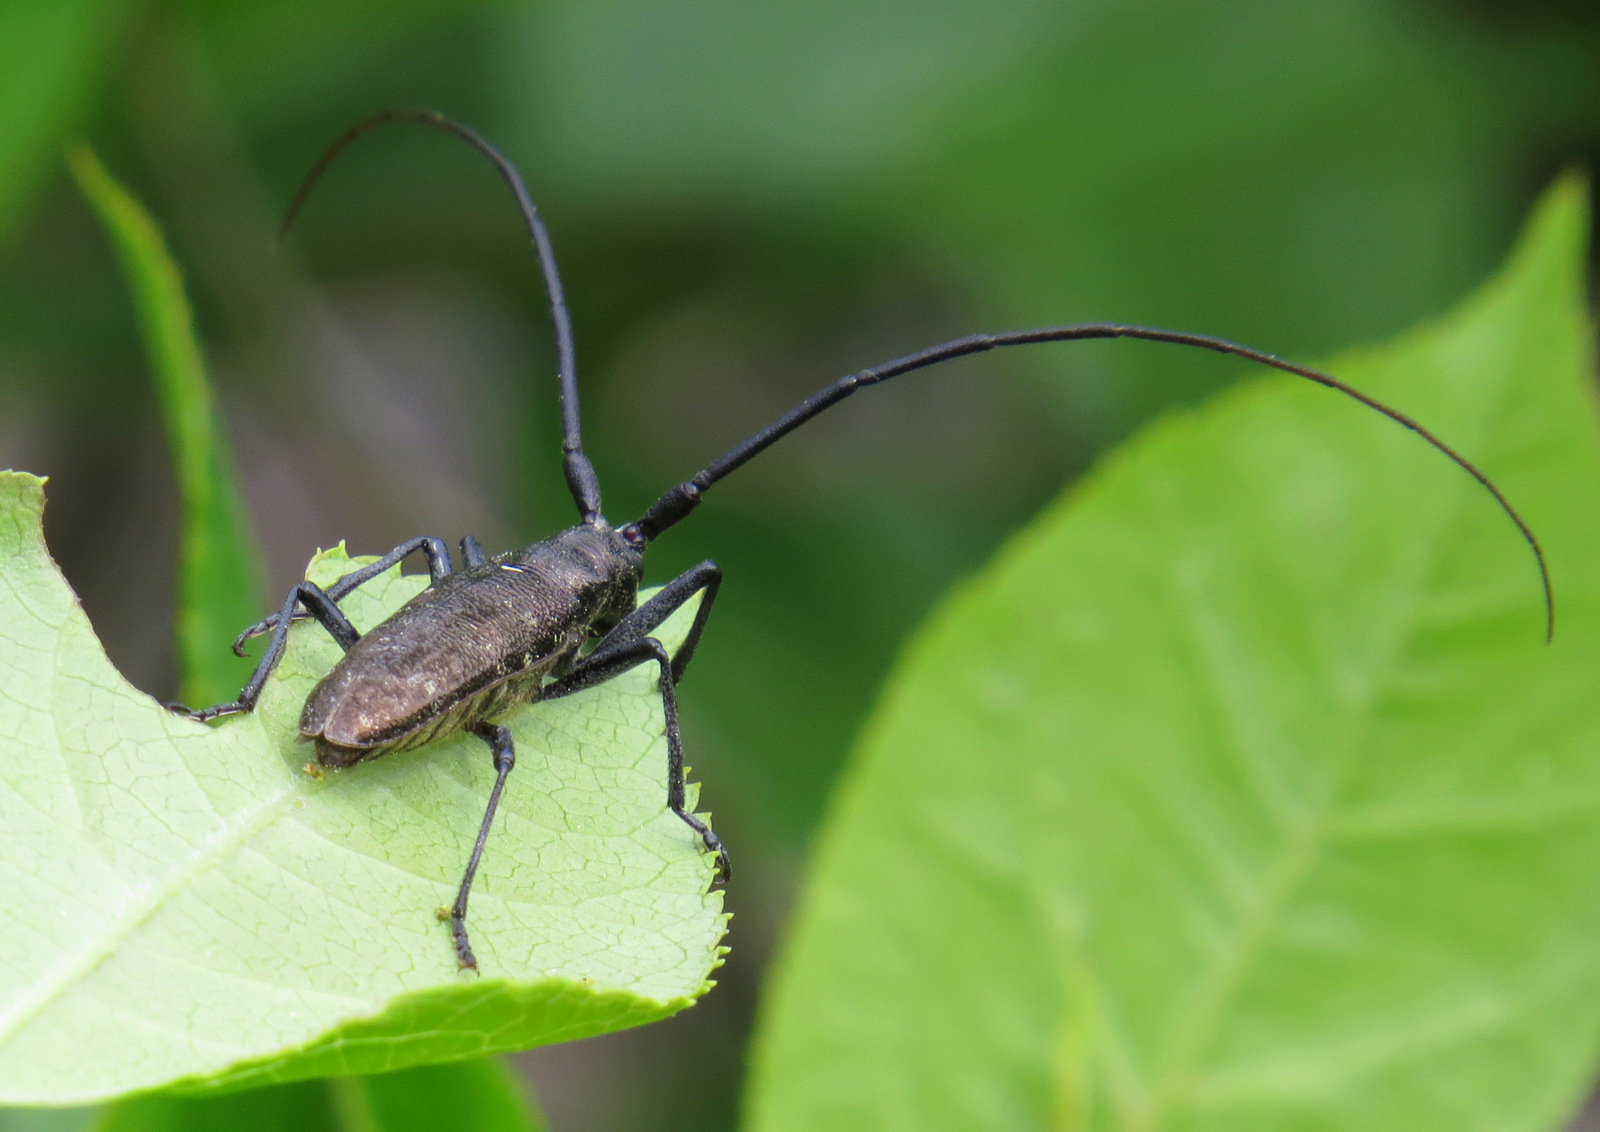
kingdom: Animalia
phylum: Arthropoda
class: Insecta
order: Coleoptera
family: Cerambycidae
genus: Monochamus
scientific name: Monochamus scutellatus
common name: White-spotted sawyer beetle
